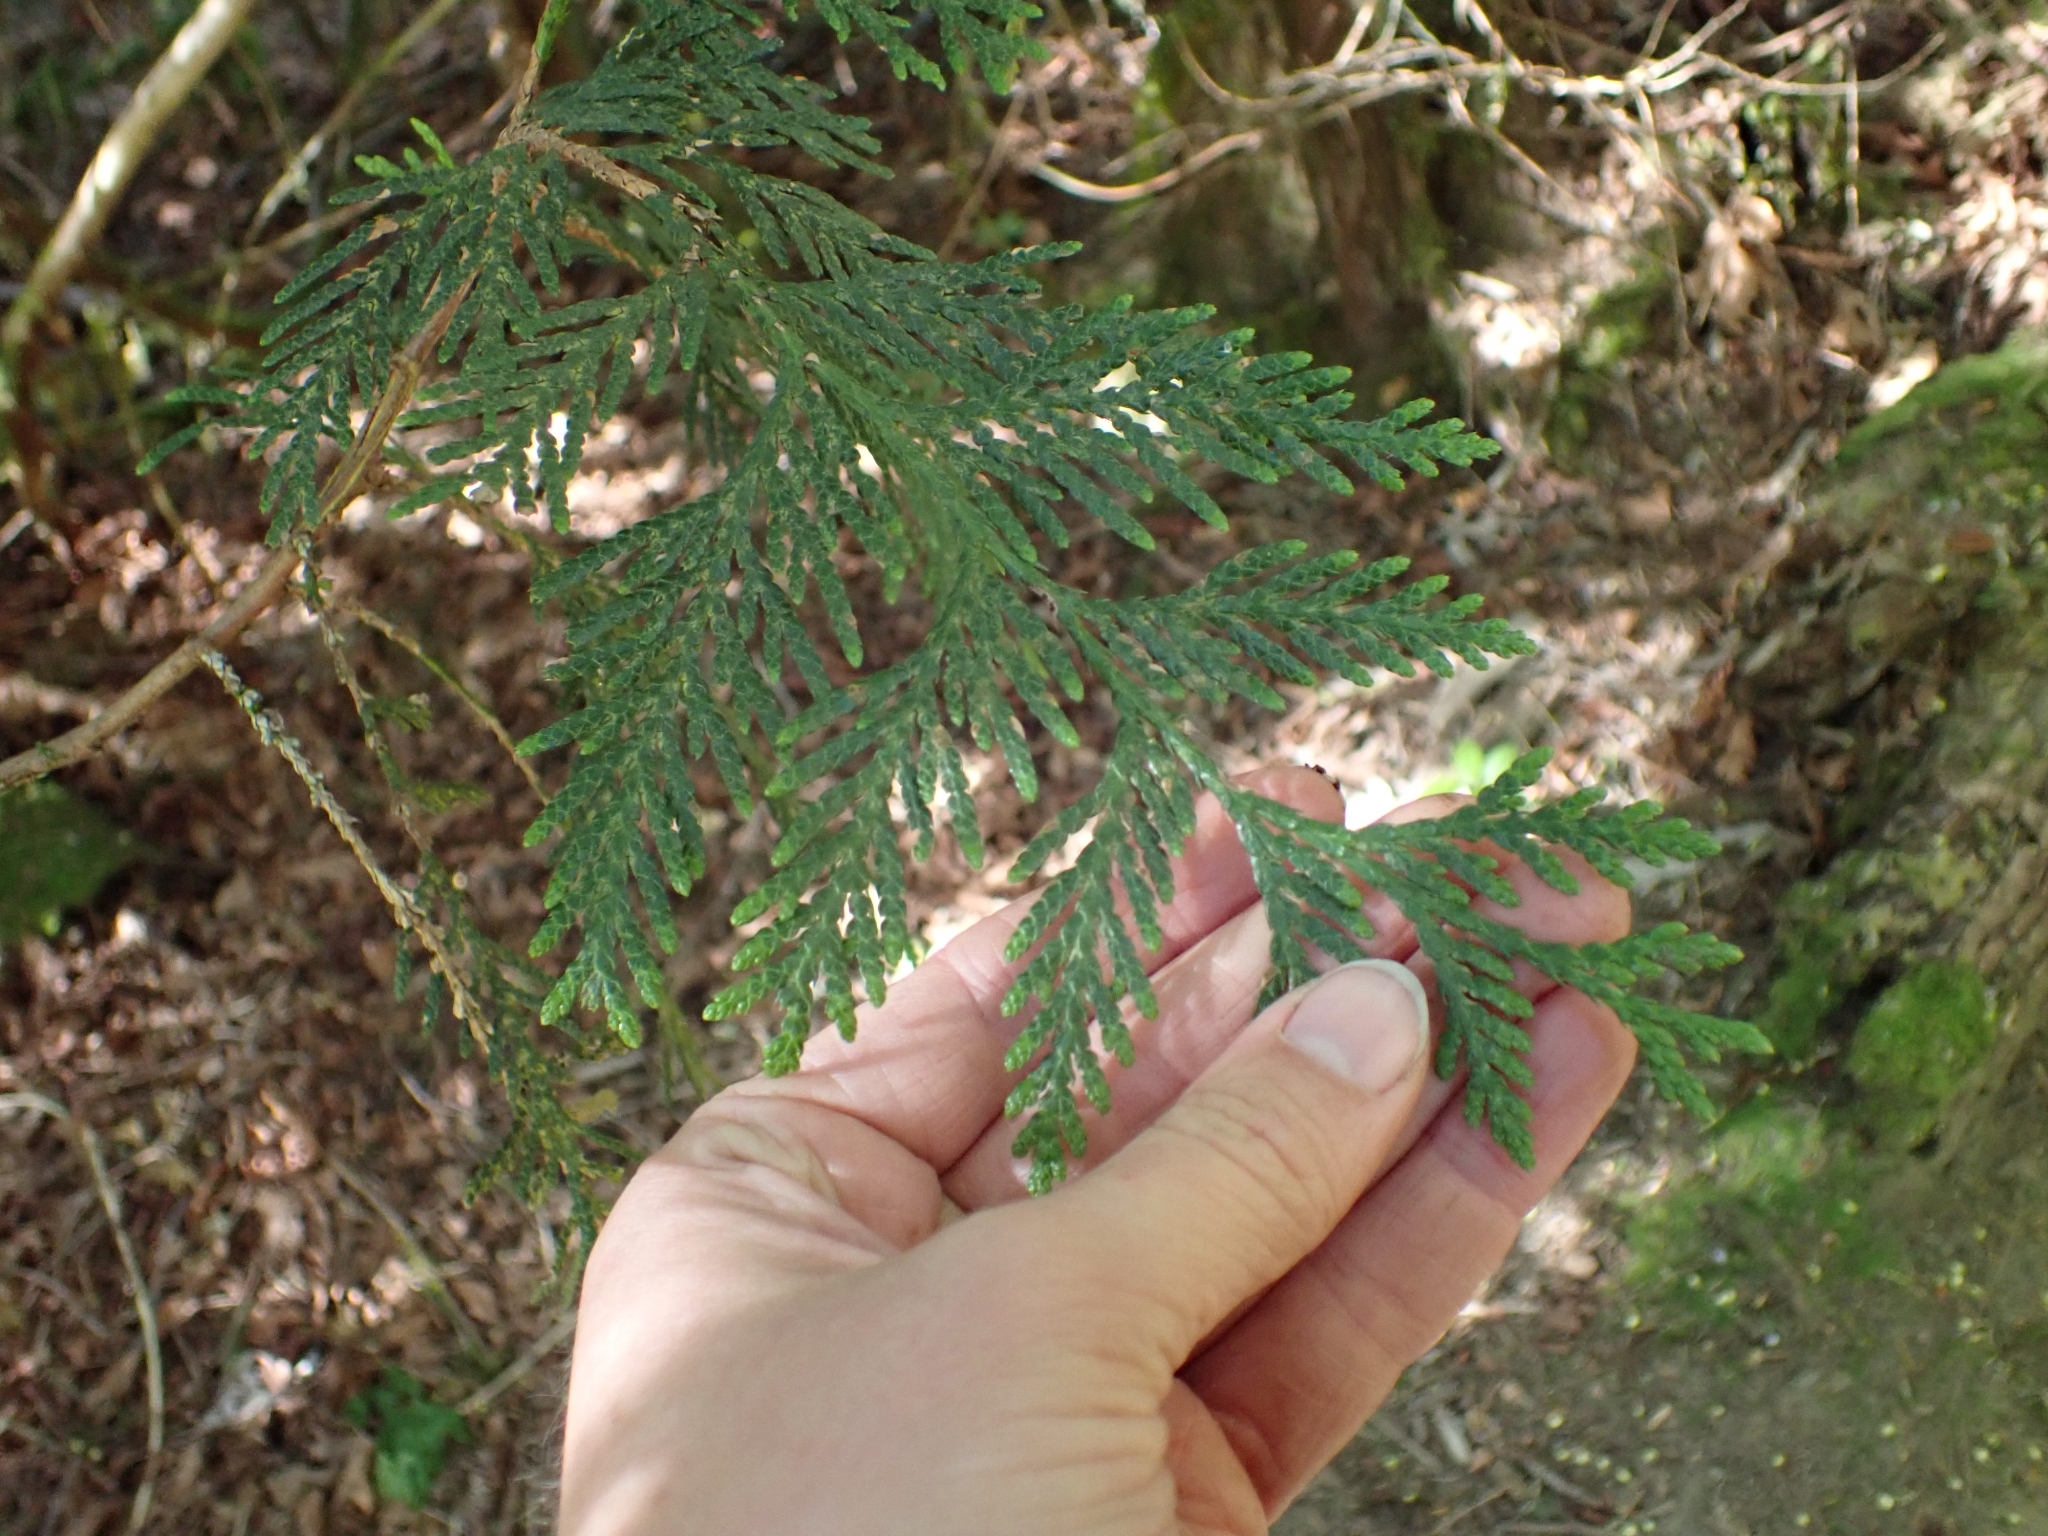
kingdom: Plantae
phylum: Tracheophyta
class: Pinopsida
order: Pinales
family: Cupressaceae
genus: Thuja
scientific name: Thuja plicata
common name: Western red-cedar
